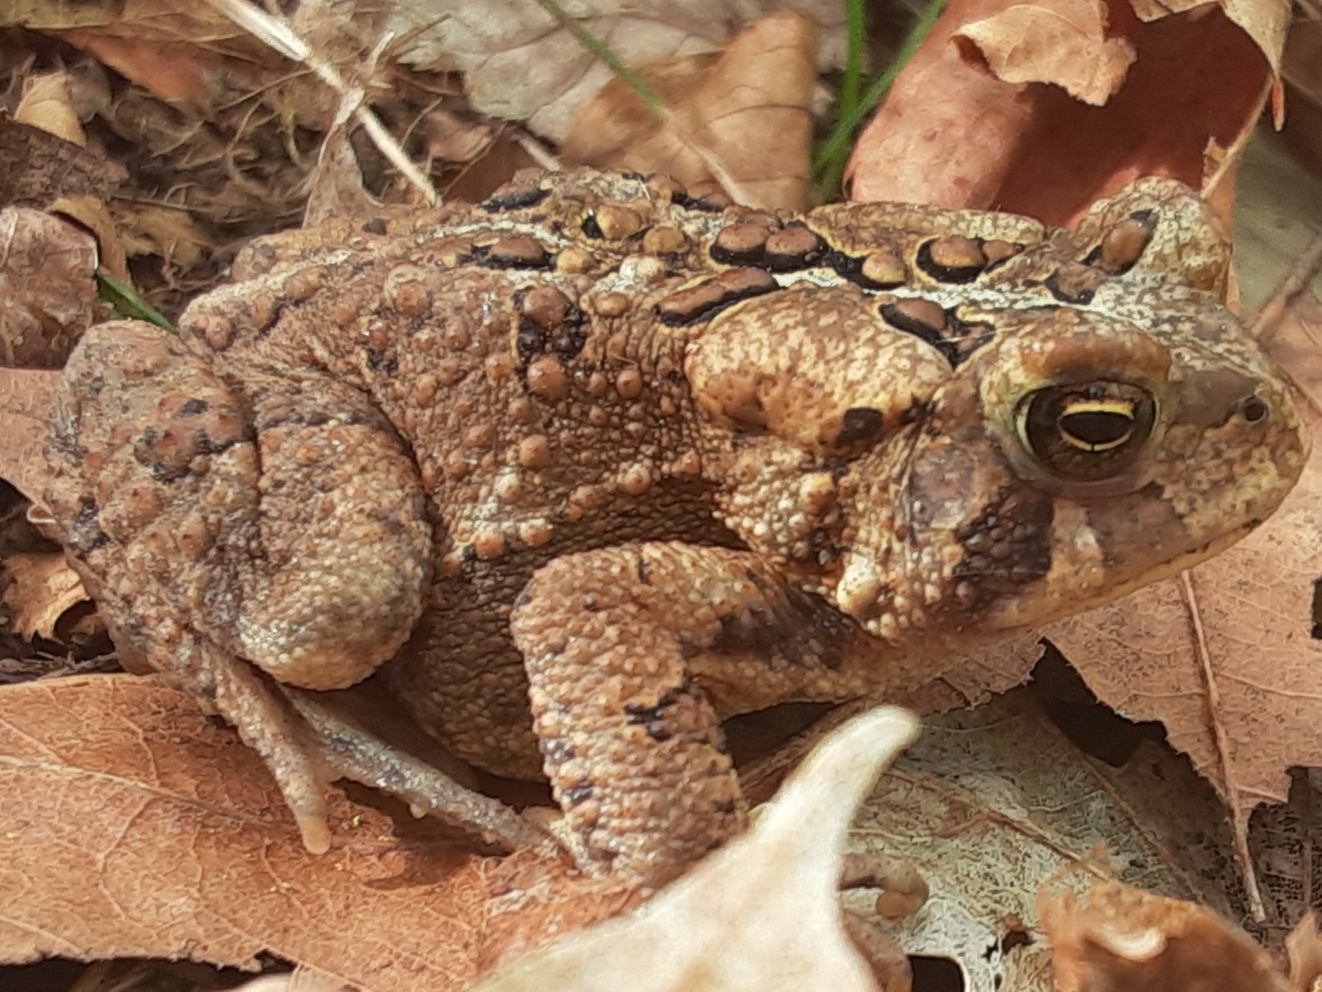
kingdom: Animalia
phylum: Chordata
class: Amphibia
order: Anura
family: Bufonidae
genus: Anaxyrus
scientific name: Anaxyrus americanus
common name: American toad
